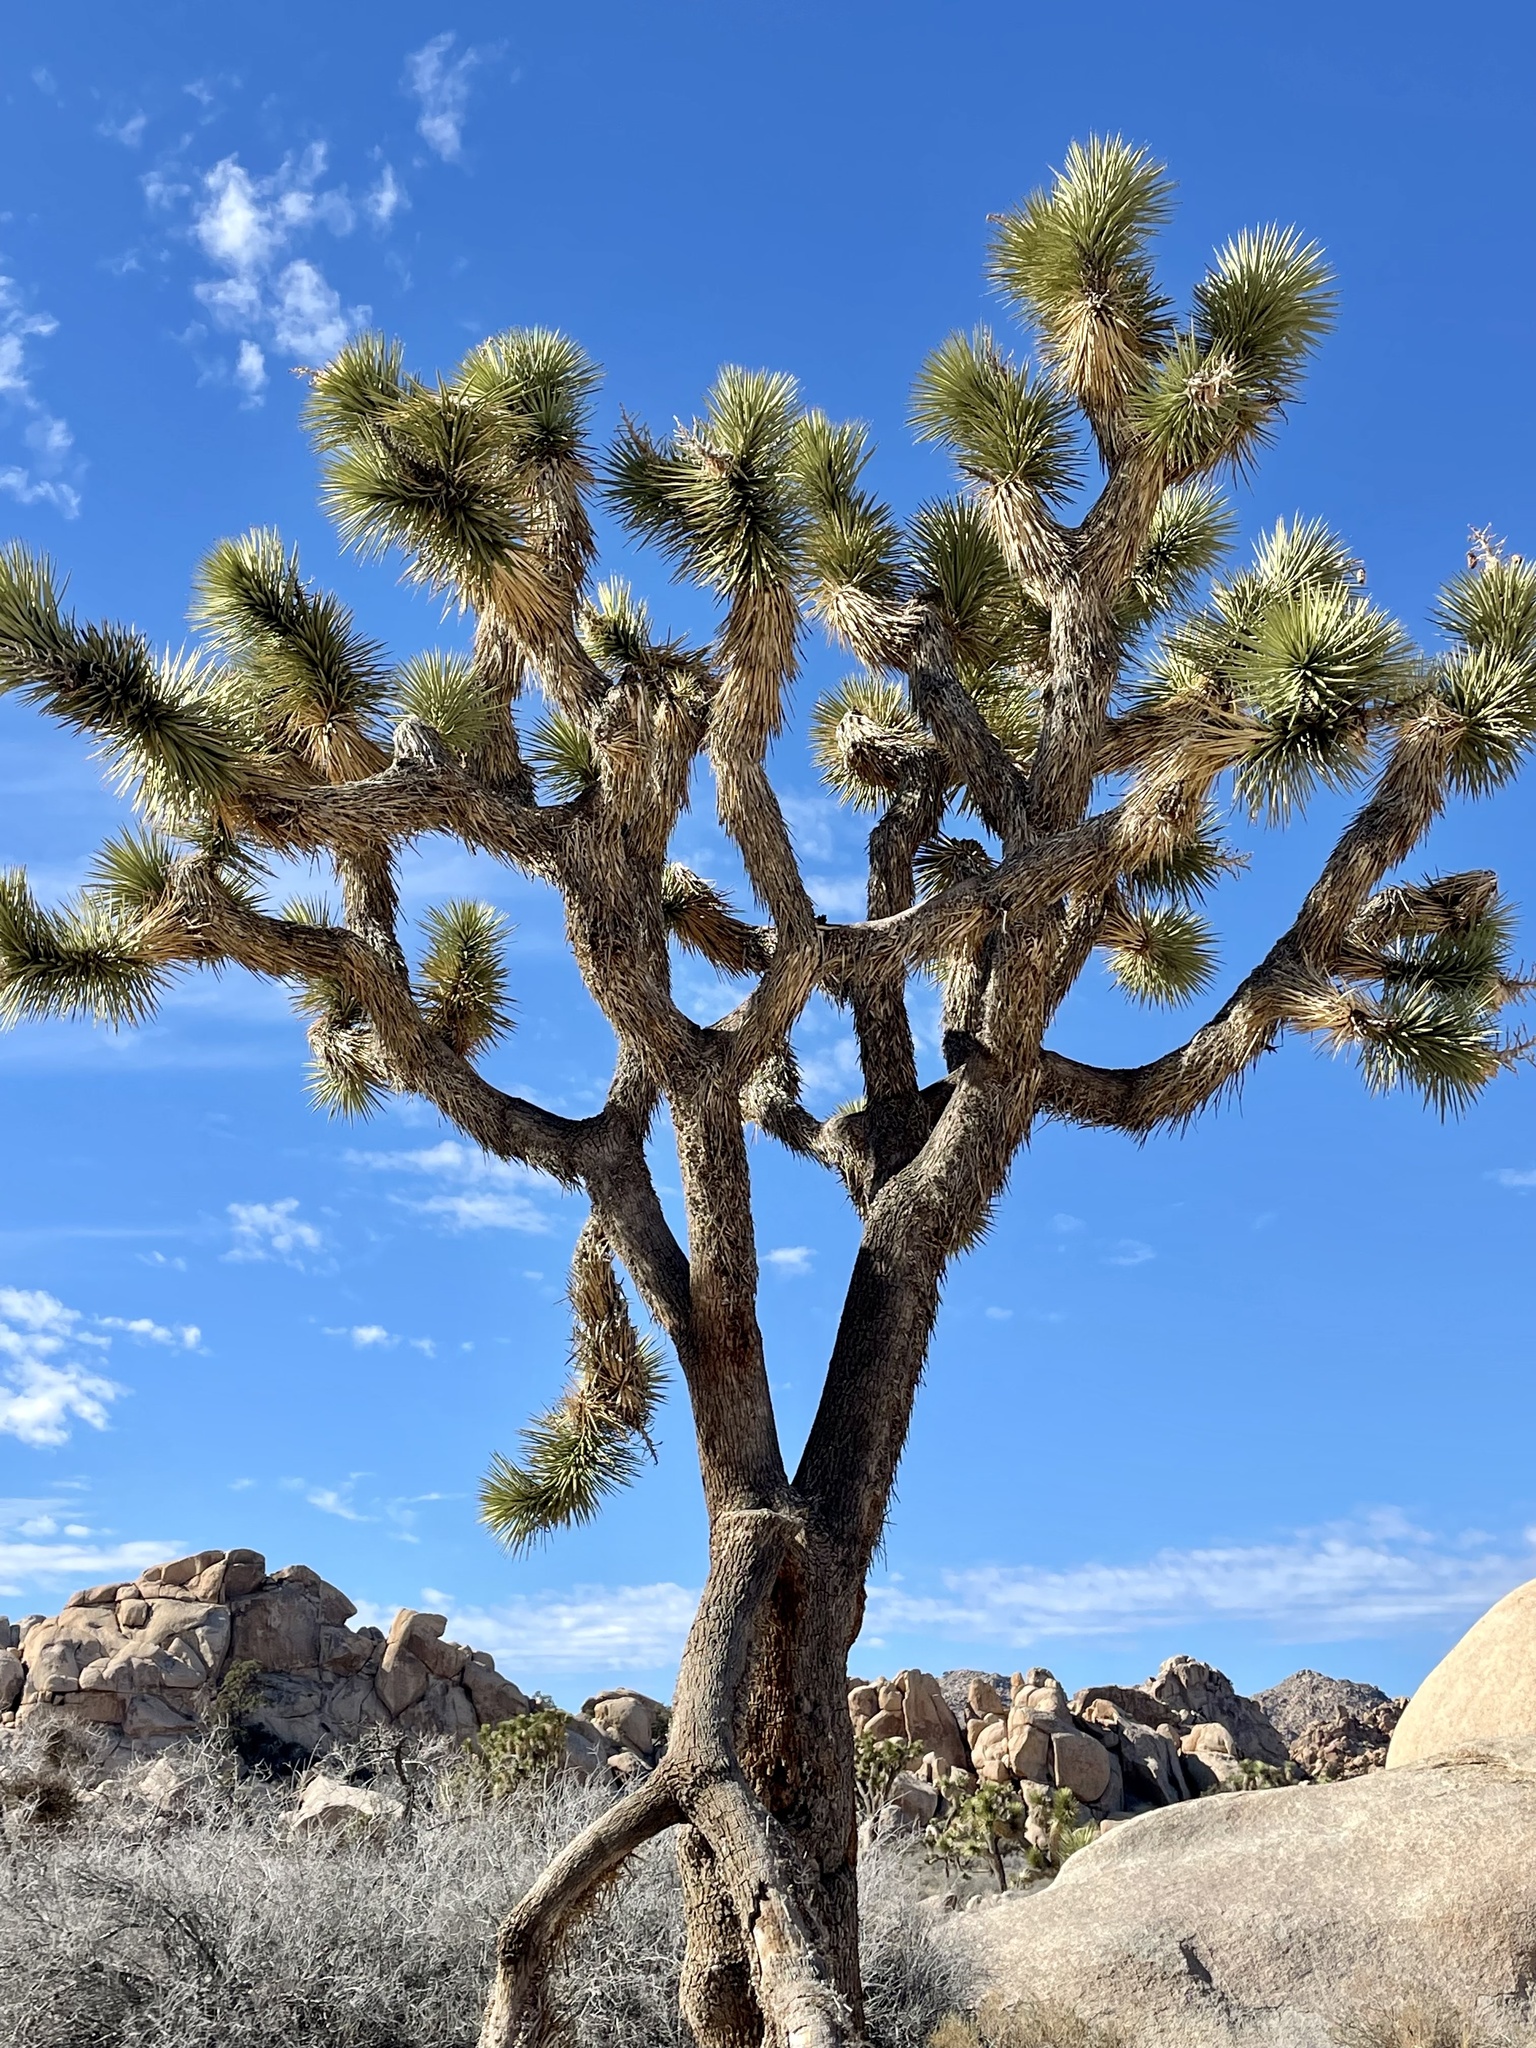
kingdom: Plantae
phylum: Tracheophyta
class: Liliopsida
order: Asparagales
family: Asparagaceae
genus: Yucca
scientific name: Yucca brevifolia
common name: Joshua tree
